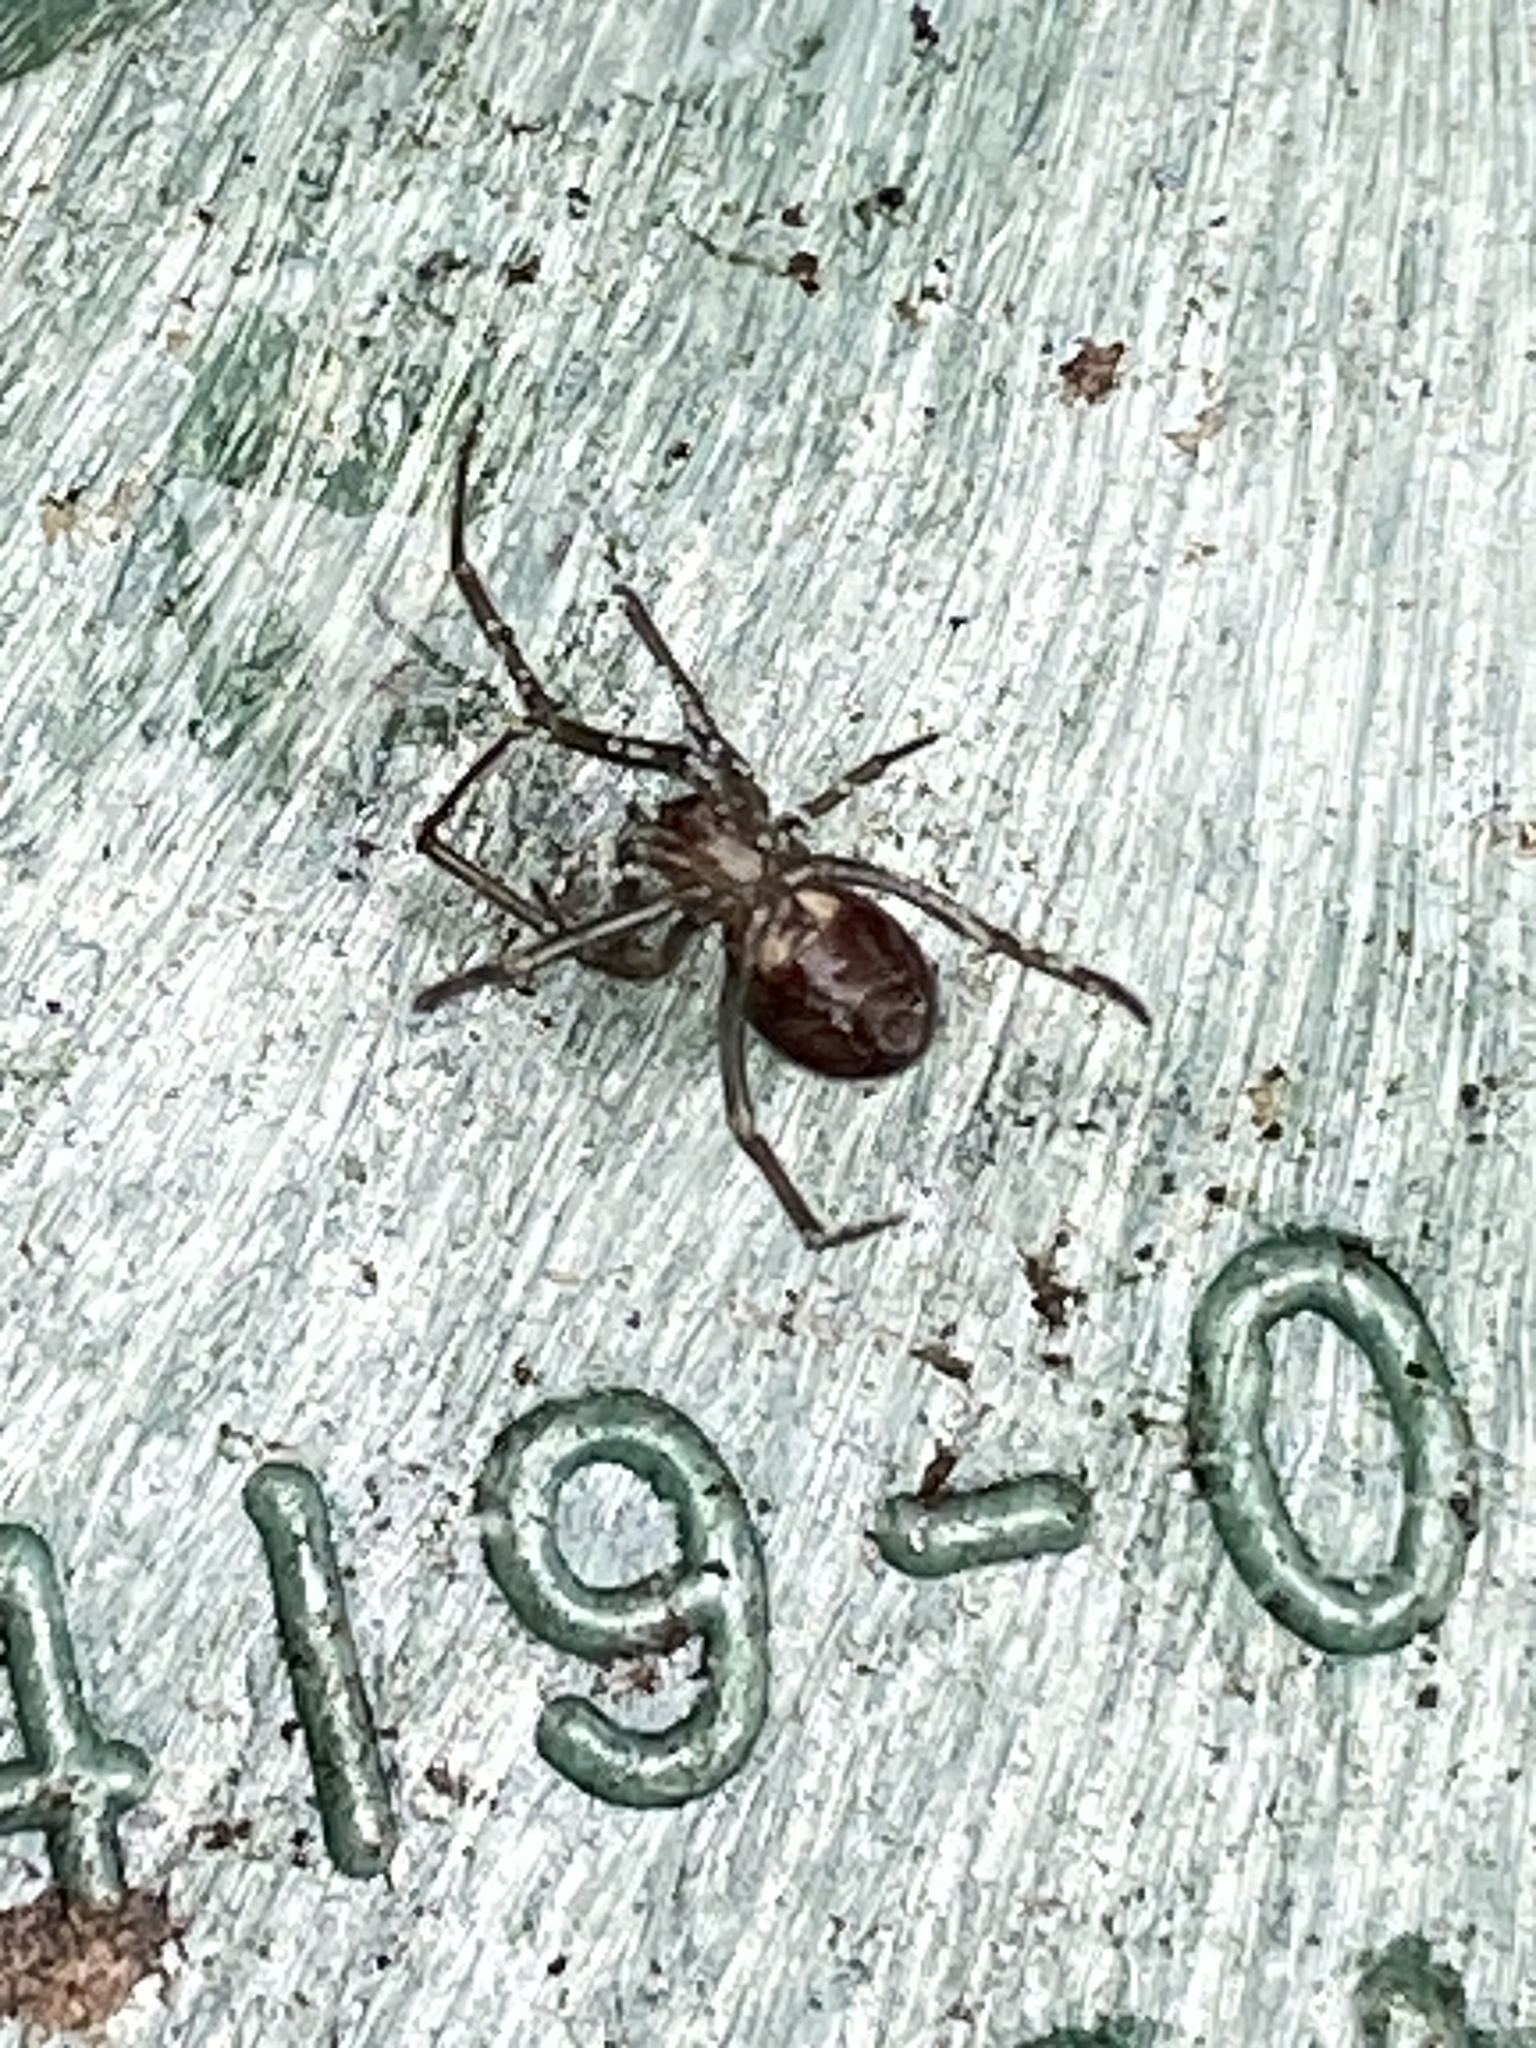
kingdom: Animalia
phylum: Arthropoda
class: Arachnida
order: Araneae
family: Theridiidae
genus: Steatoda
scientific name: Steatoda grossa
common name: False black widow
